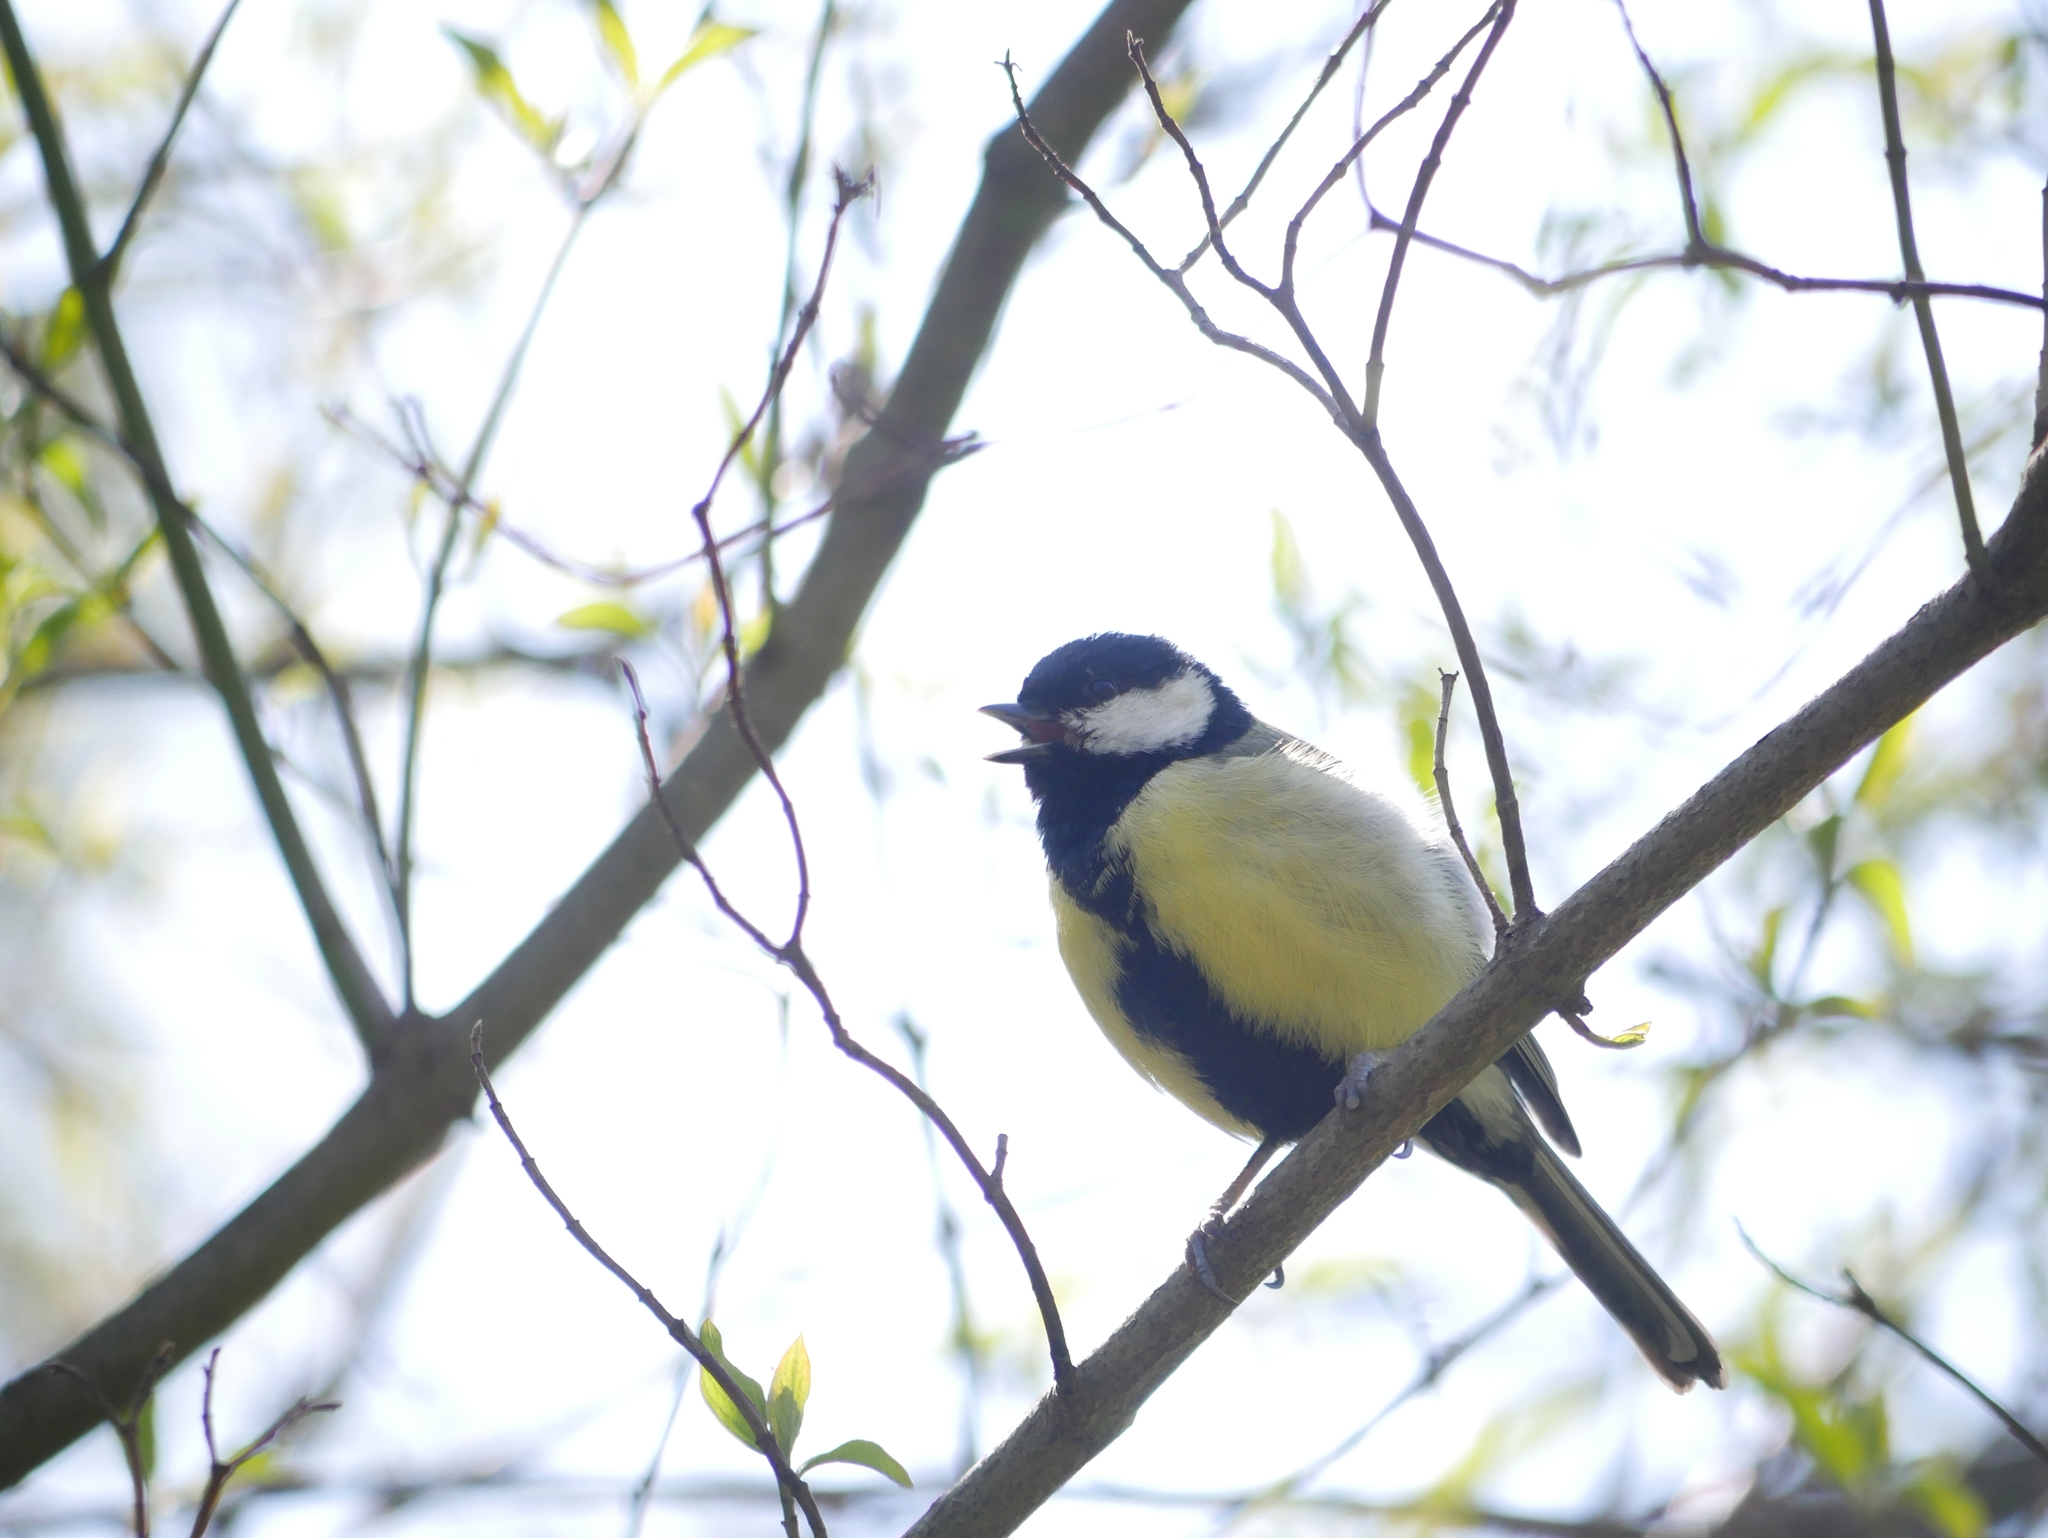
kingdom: Animalia
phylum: Chordata
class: Aves
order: Passeriformes
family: Paridae
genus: Parus
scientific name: Parus major
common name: Great tit
